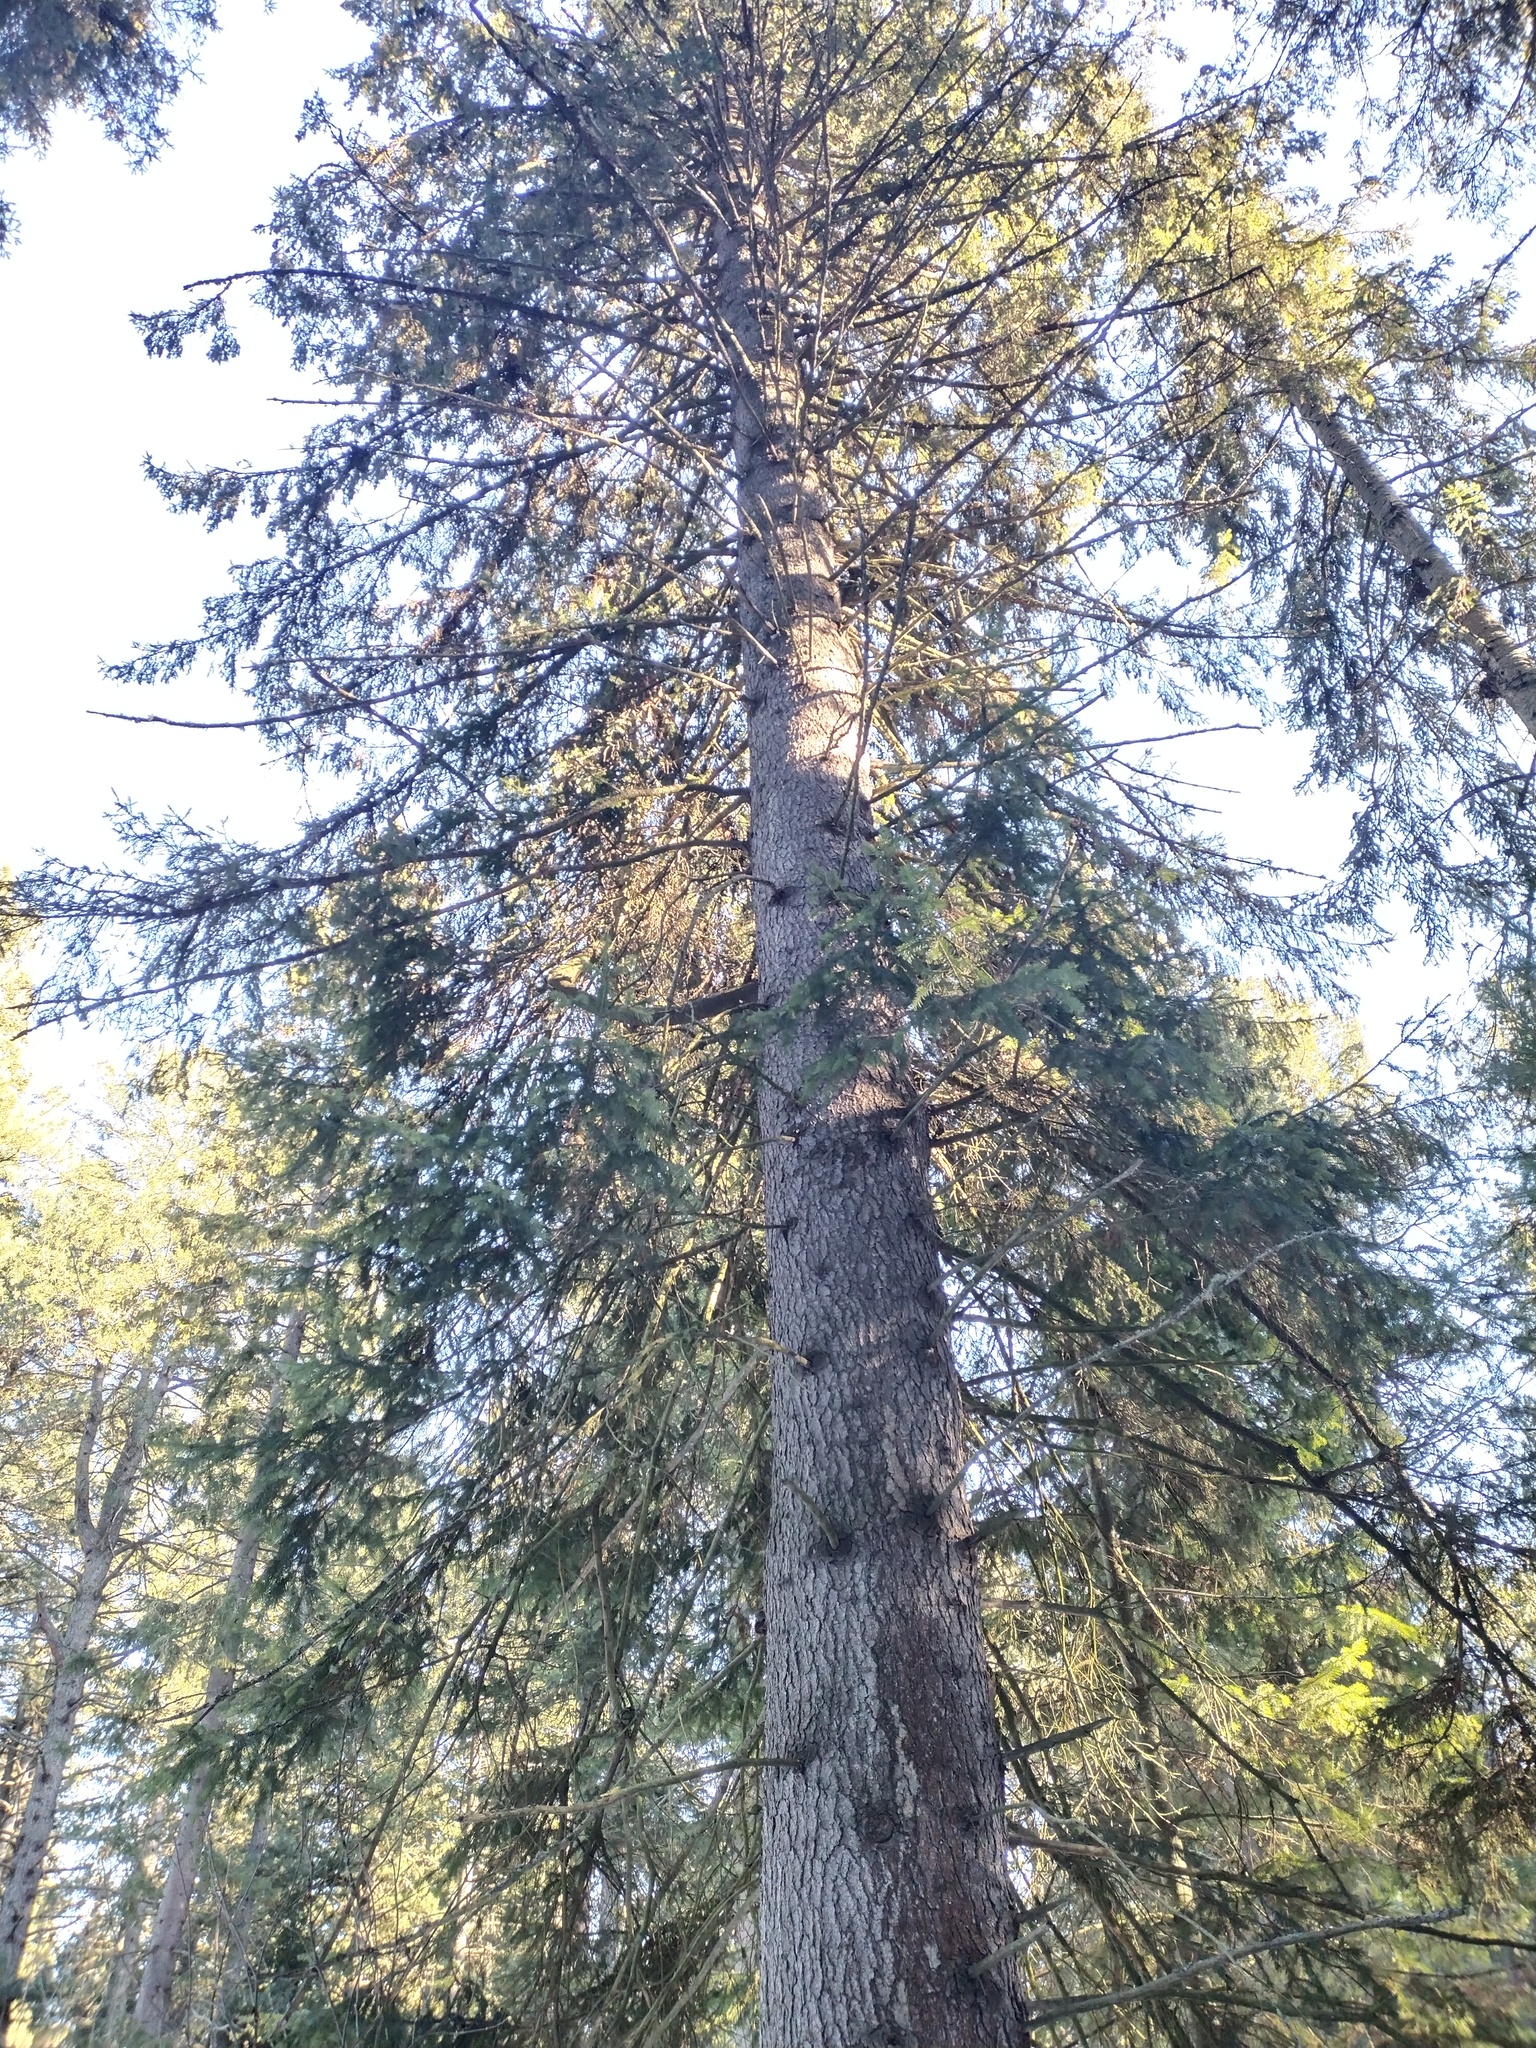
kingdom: Plantae
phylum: Tracheophyta
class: Pinopsida
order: Pinales
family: Pinaceae
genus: Picea
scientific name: Picea obovata
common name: Siberian spruce
